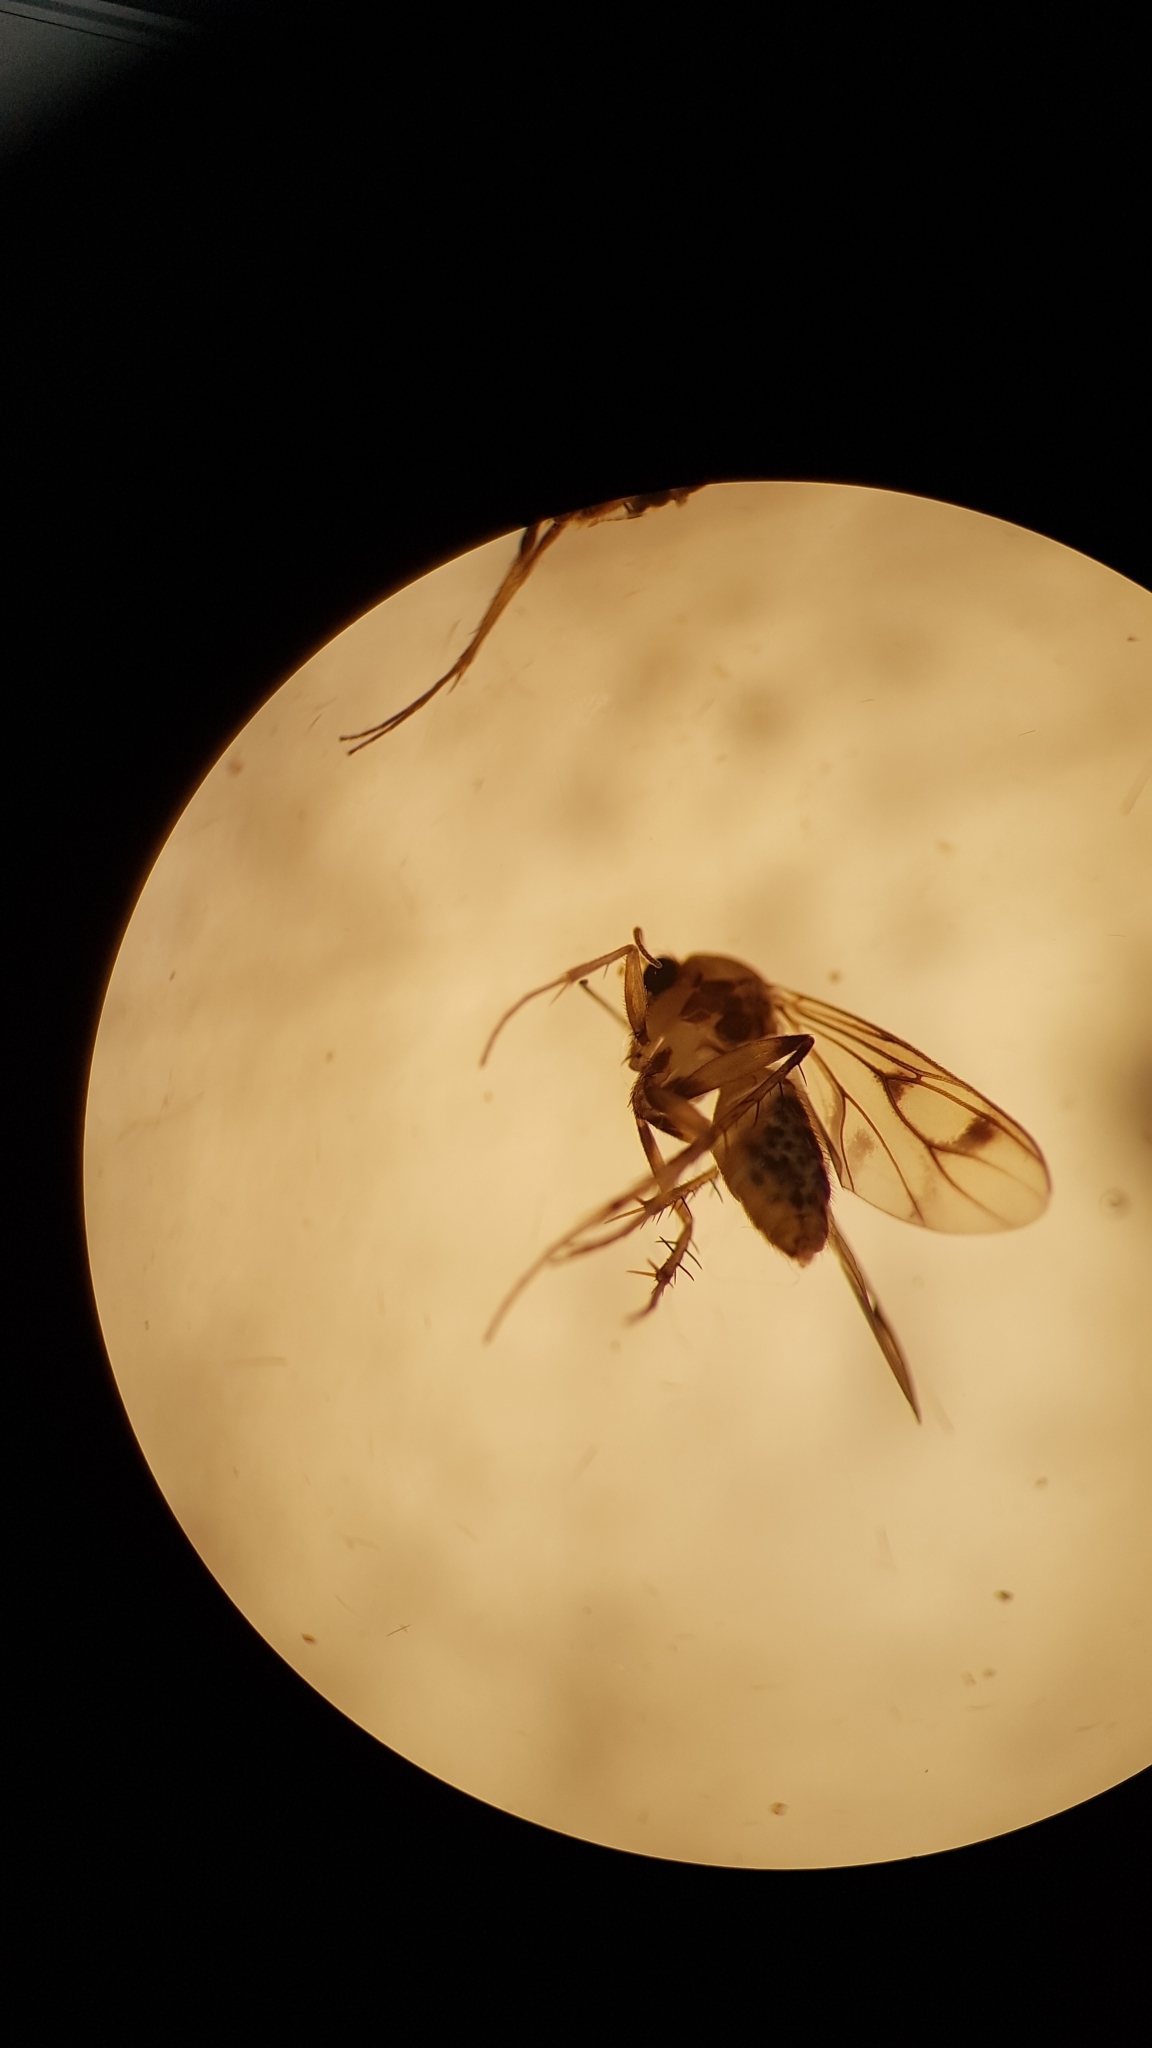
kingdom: Animalia
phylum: Arthropoda
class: Insecta
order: Diptera
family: Mycetophilidae
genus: Anomalomyia
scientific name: Anomalomyia guttata
